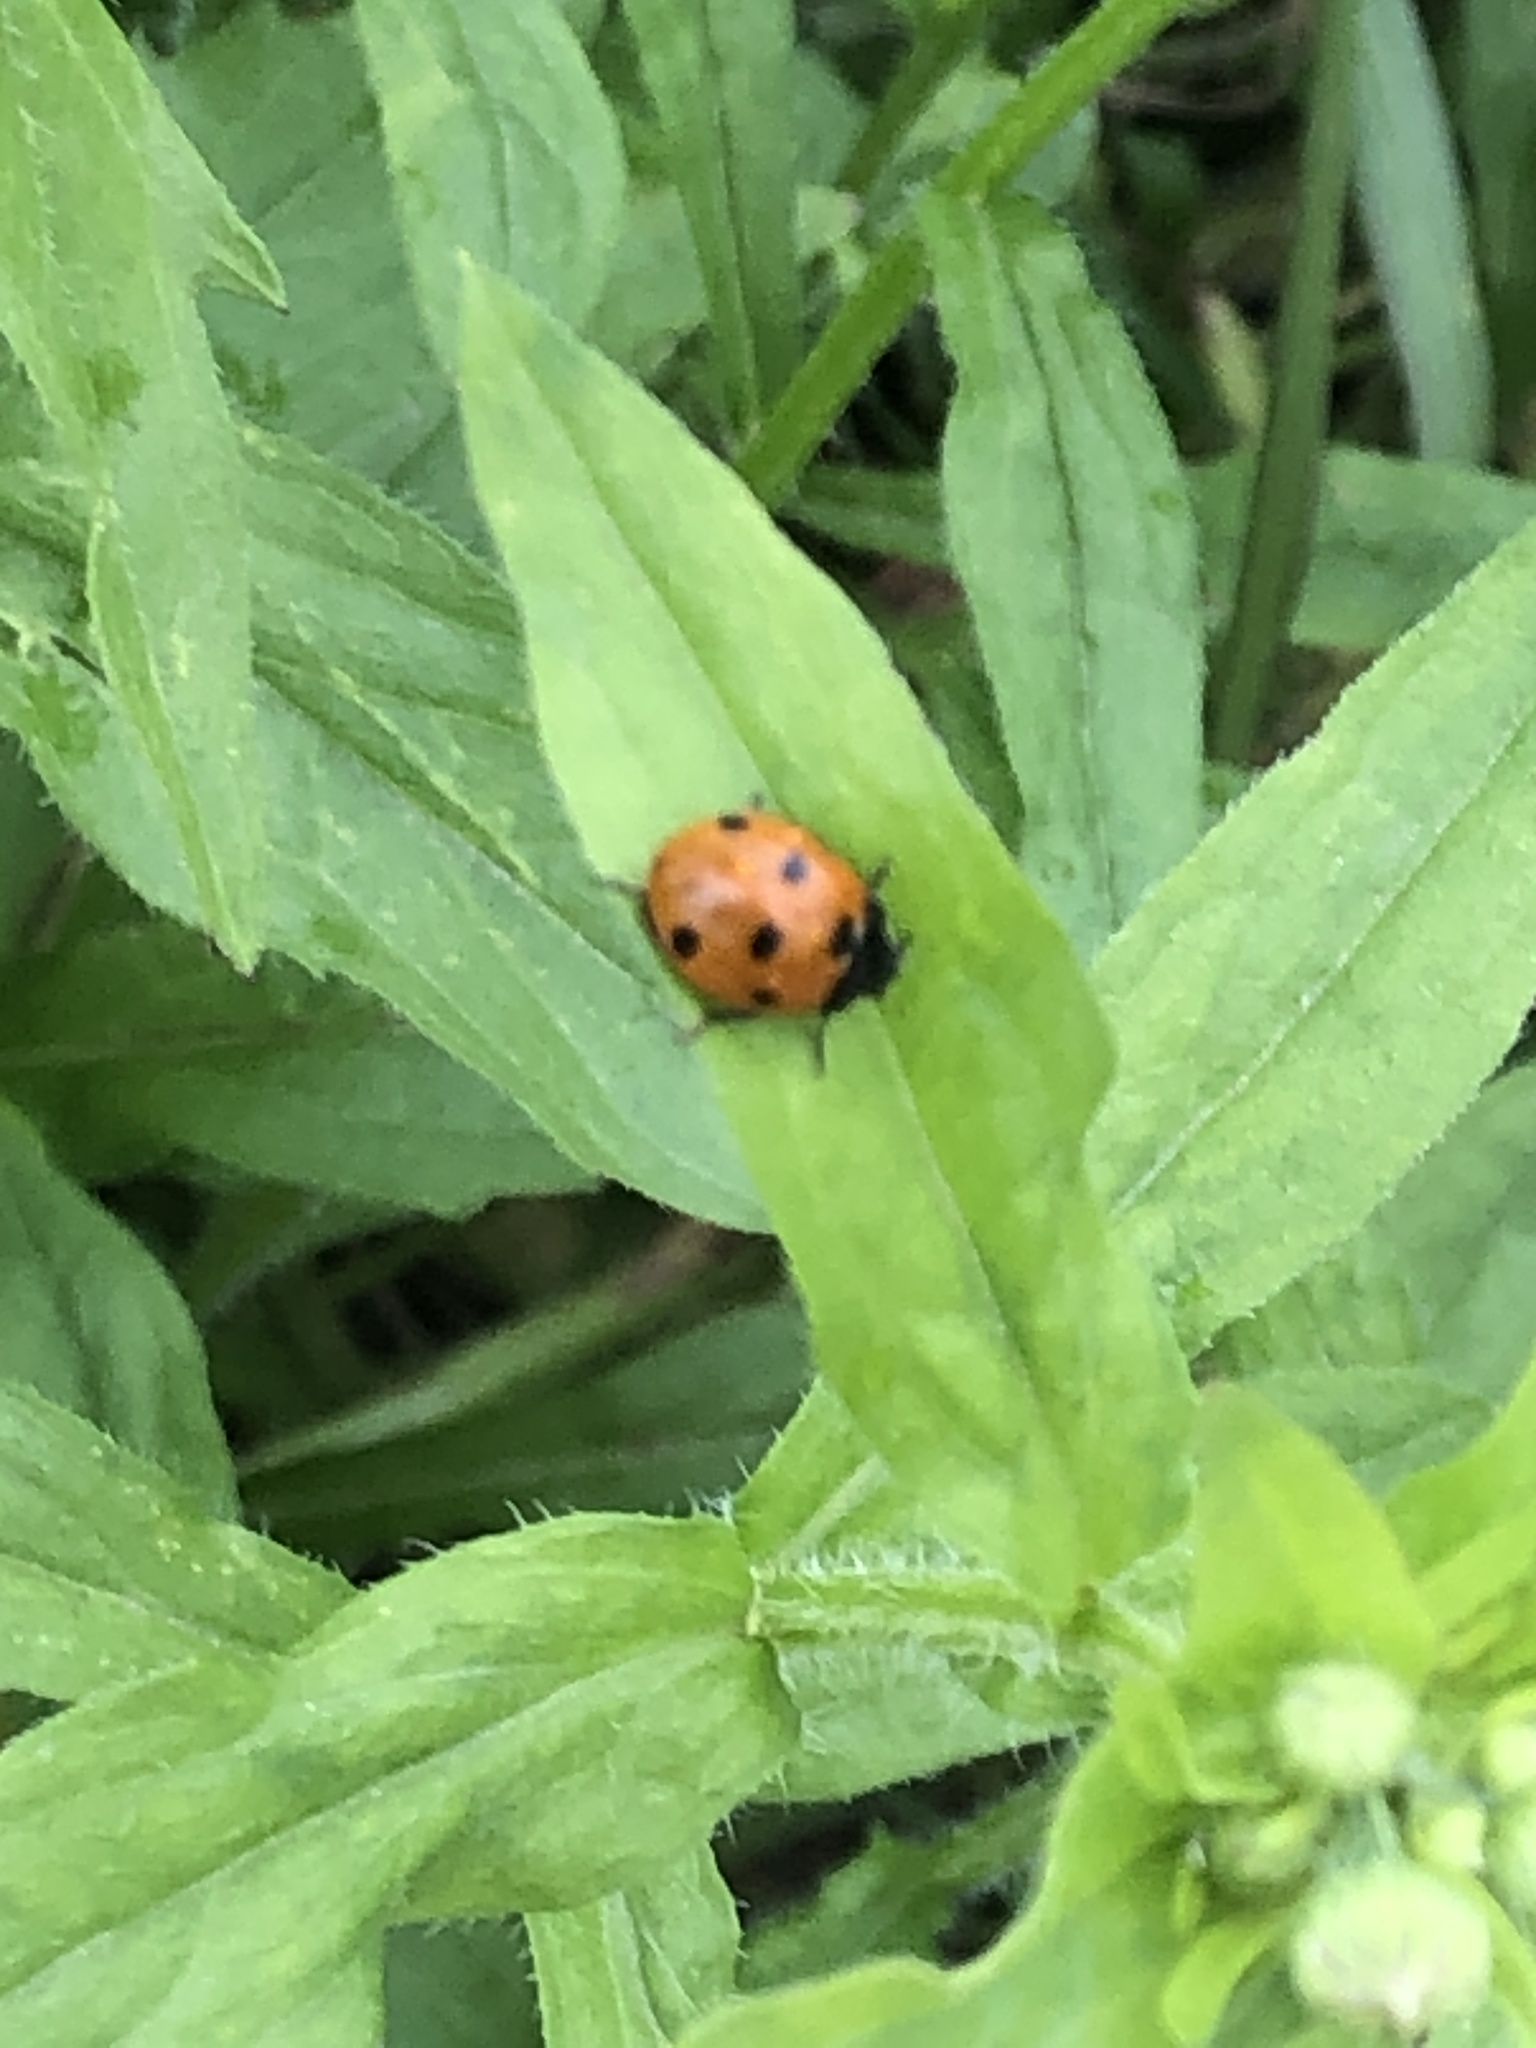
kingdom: Animalia
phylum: Arthropoda
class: Insecta
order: Coleoptera
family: Coccinellidae
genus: Coccinella
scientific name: Coccinella septempunctata
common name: Sevenspotted lady beetle
